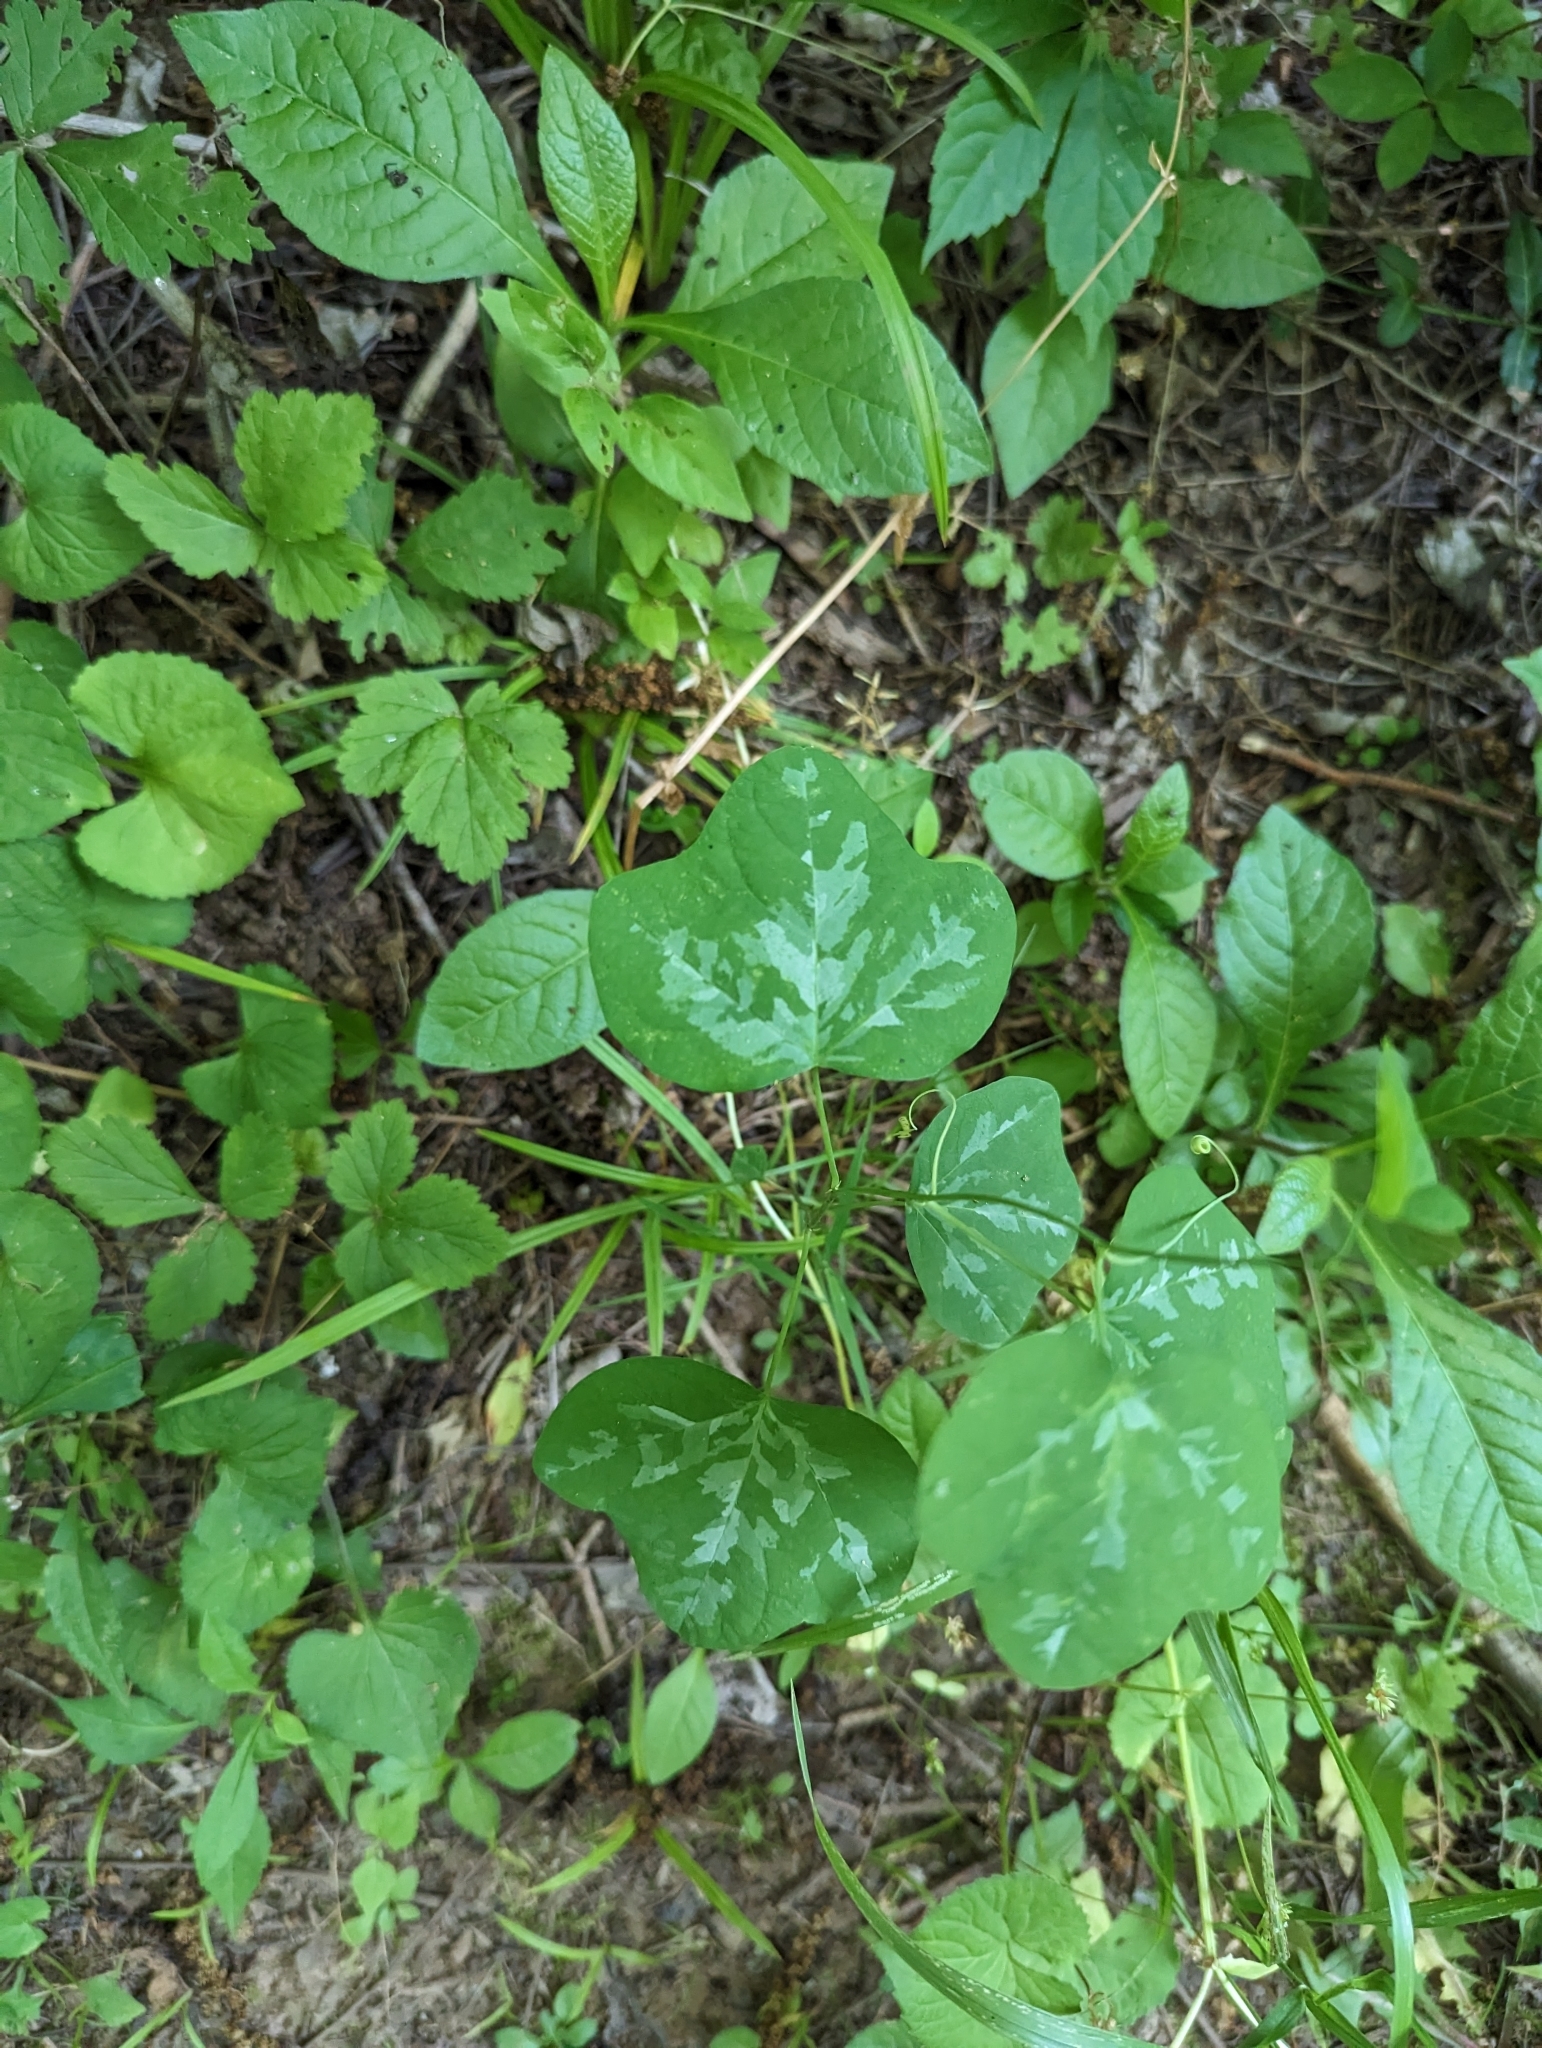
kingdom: Plantae
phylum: Tracheophyta
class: Magnoliopsida
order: Malpighiales
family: Passifloraceae
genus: Passiflora
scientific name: Passiflora lutea
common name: Yellow passionflower
